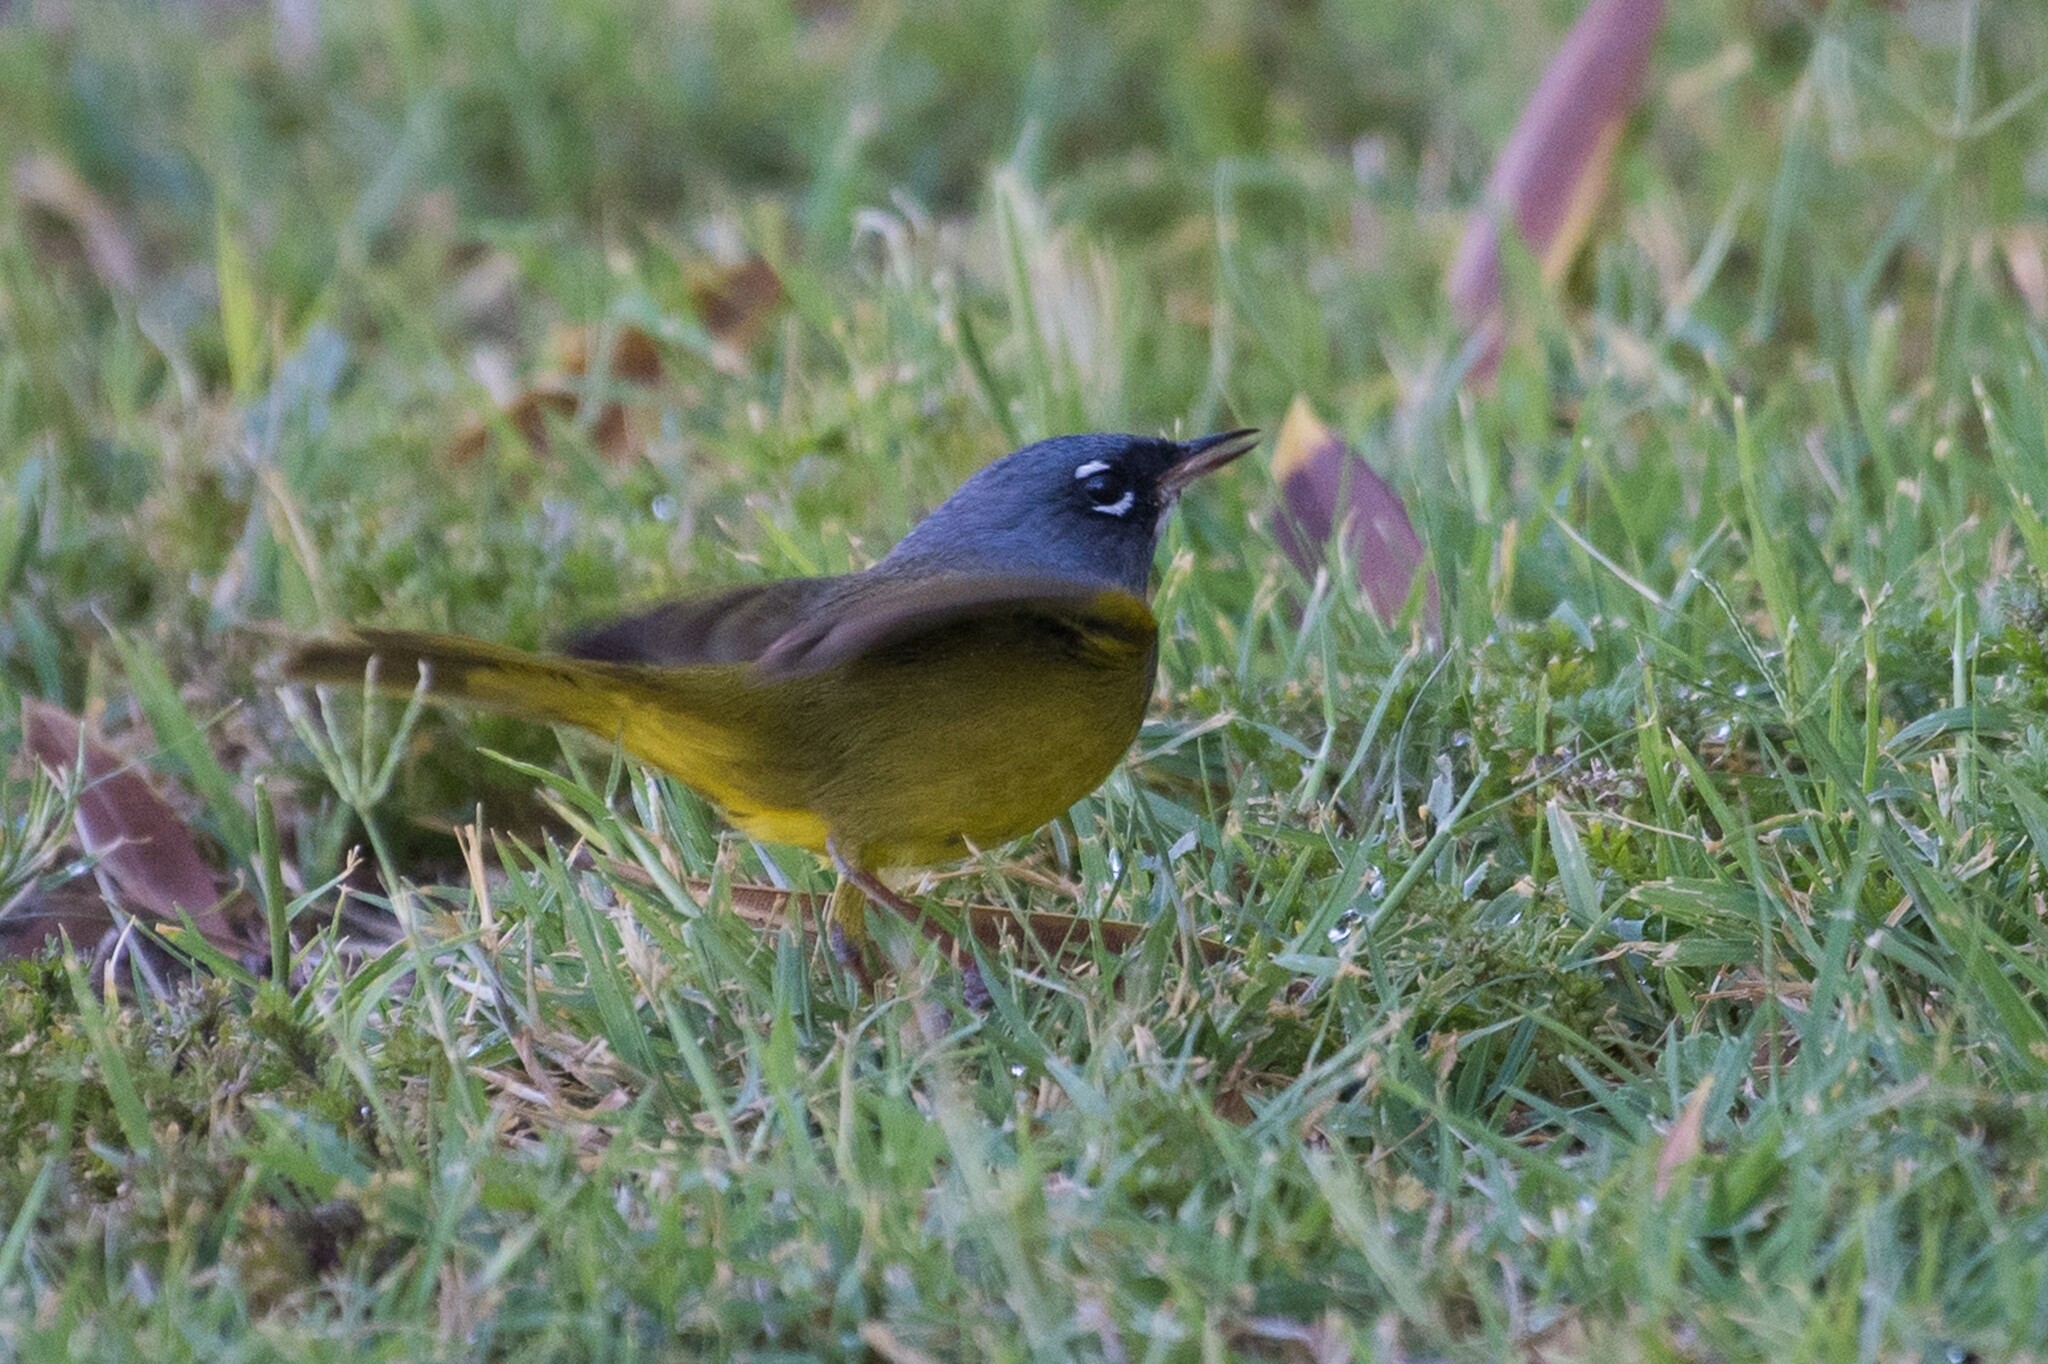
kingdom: Animalia
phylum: Chordata
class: Aves
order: Passeriformes
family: Parulidae
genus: Geothlypis
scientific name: Geothlypis tolmiei
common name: Macgillivray's warbler
